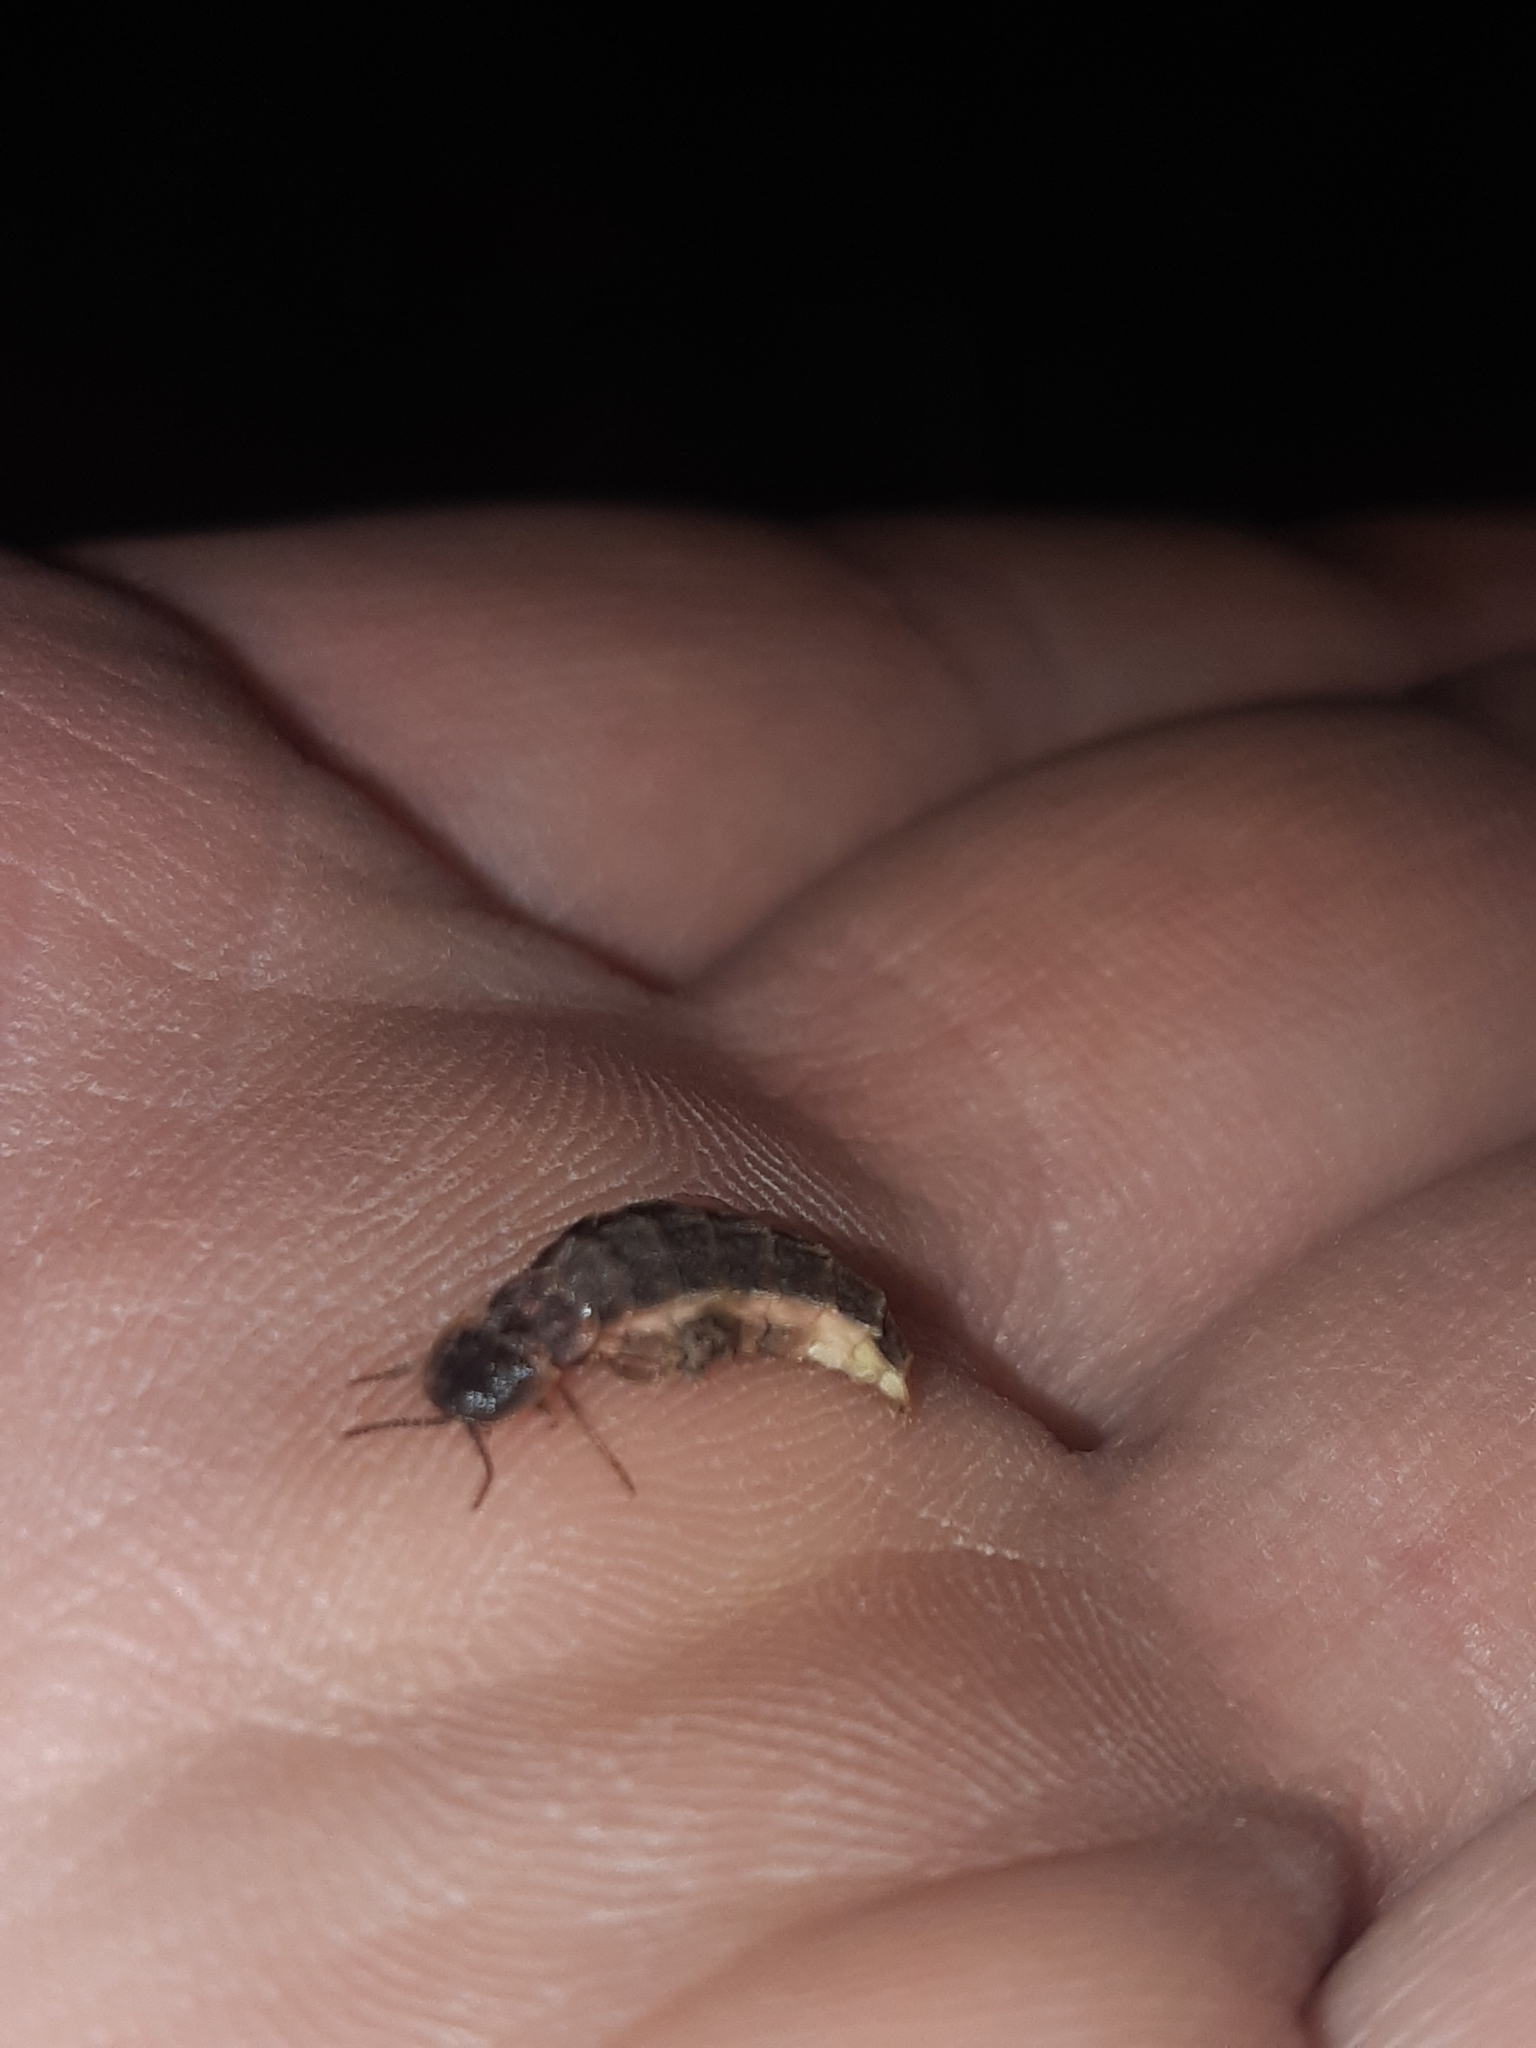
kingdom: Animalia
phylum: Arthropoda
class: Insecta
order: Coleoptera
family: Lampyridae
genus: Lampyris
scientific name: Lampyris noctiluca
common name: Glow-worm
